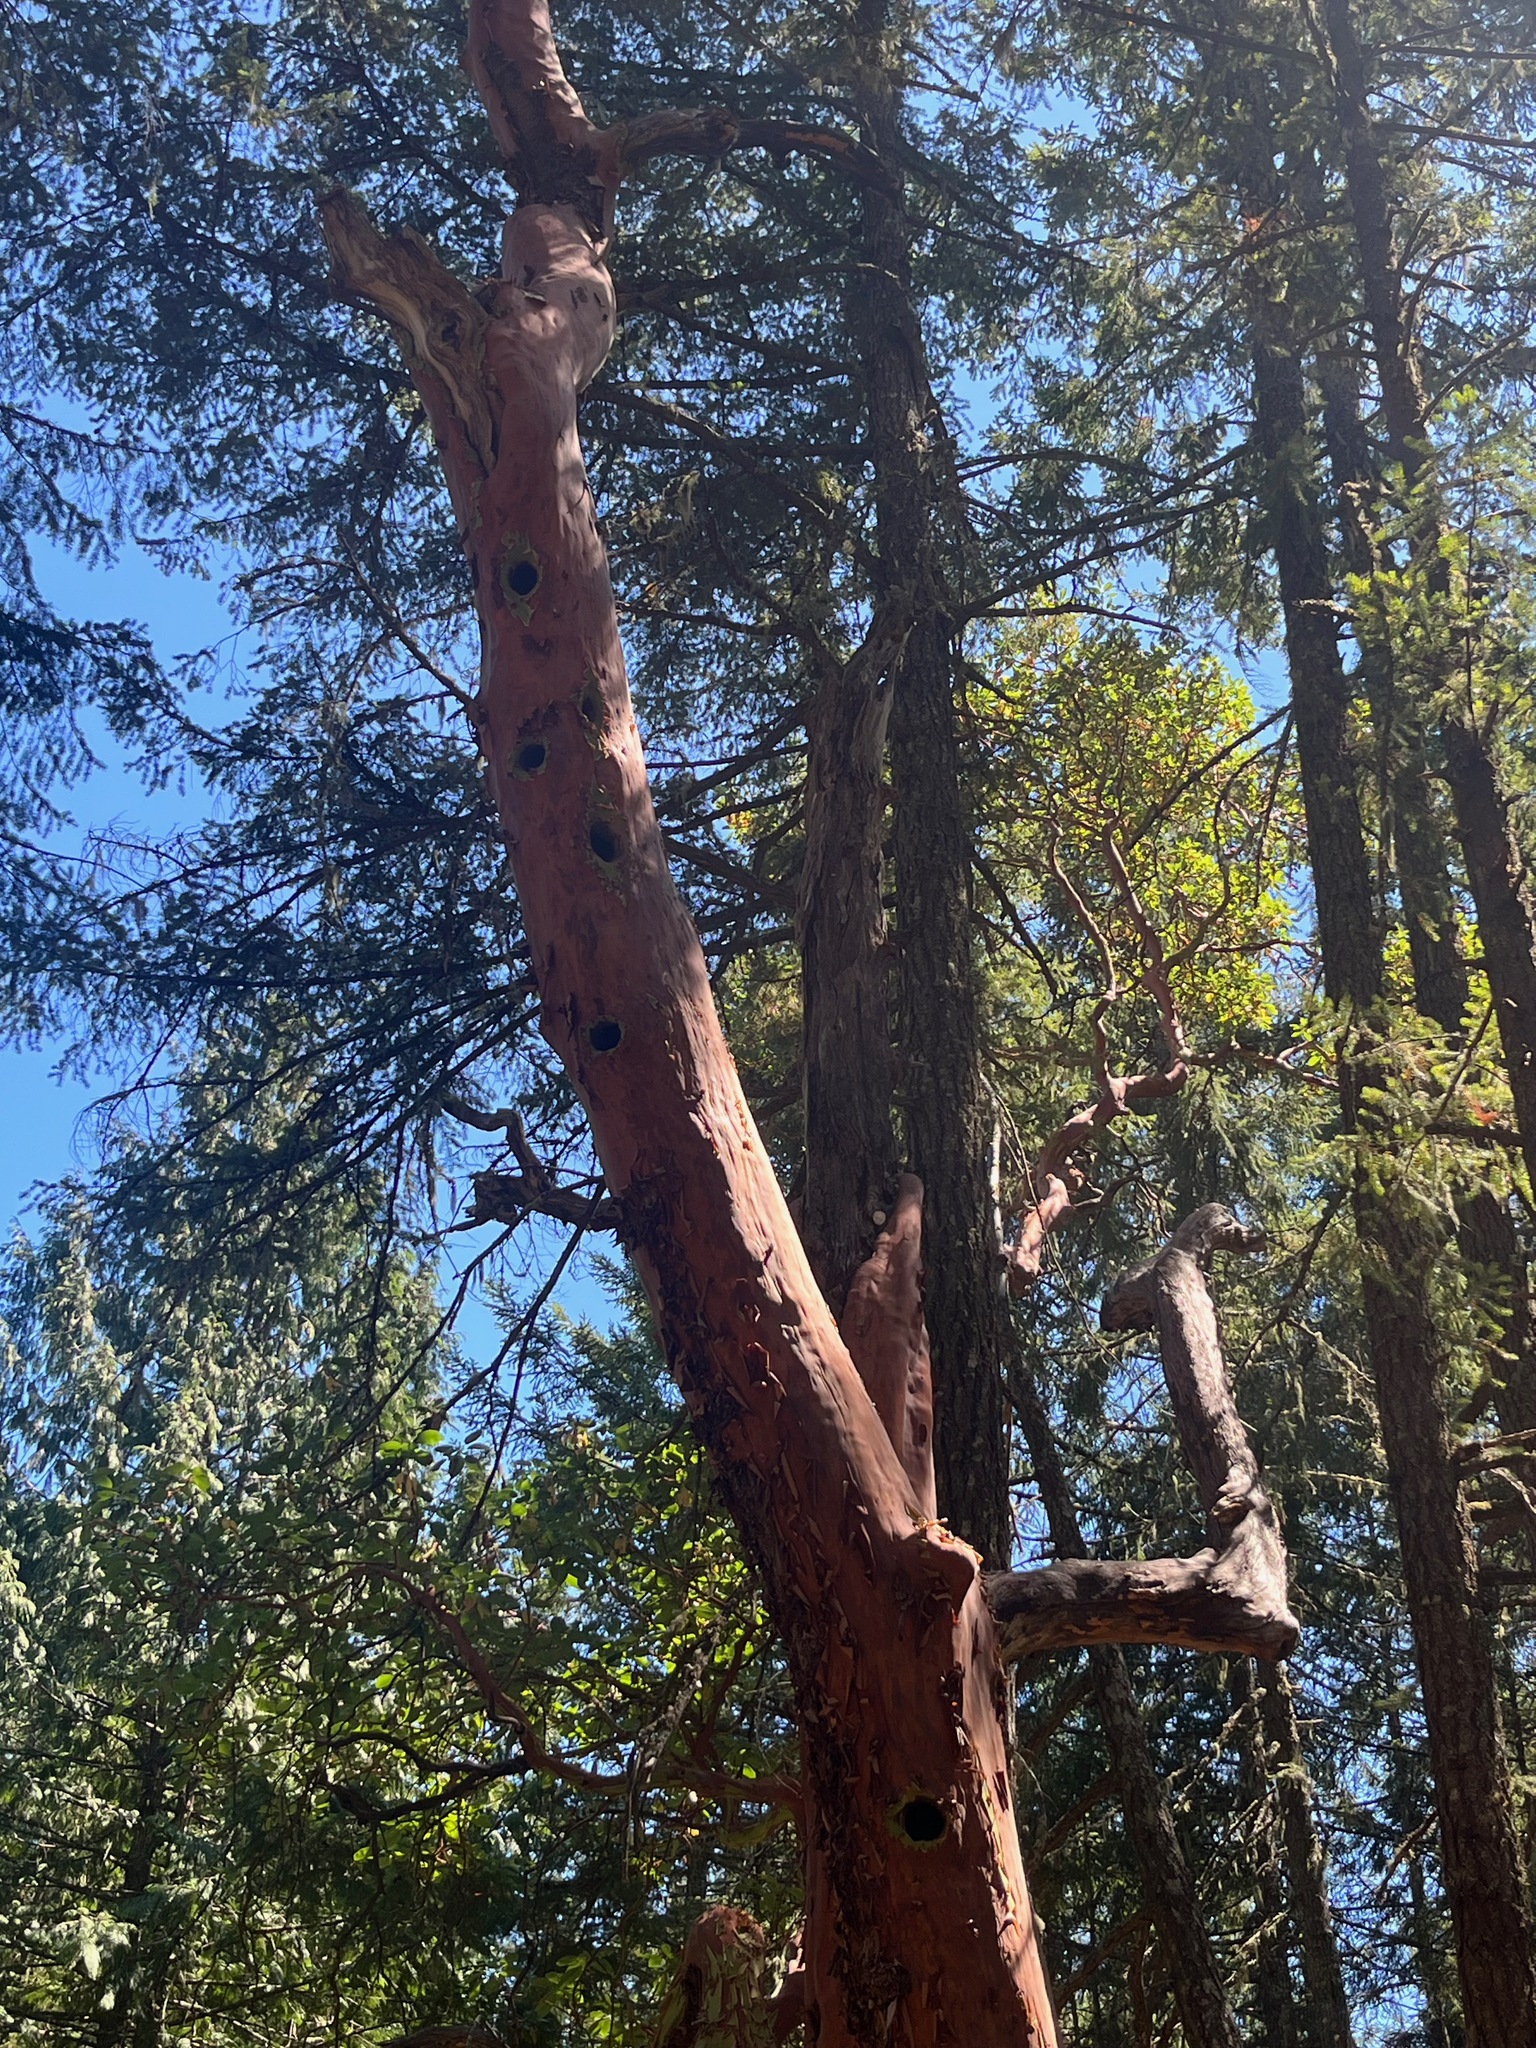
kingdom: Plantae
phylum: Tracheophyta
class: Magnoliopsida
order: Ericales
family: Ericaceae
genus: Arbutus
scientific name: Arbutus menziesii
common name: Pacific madrone
